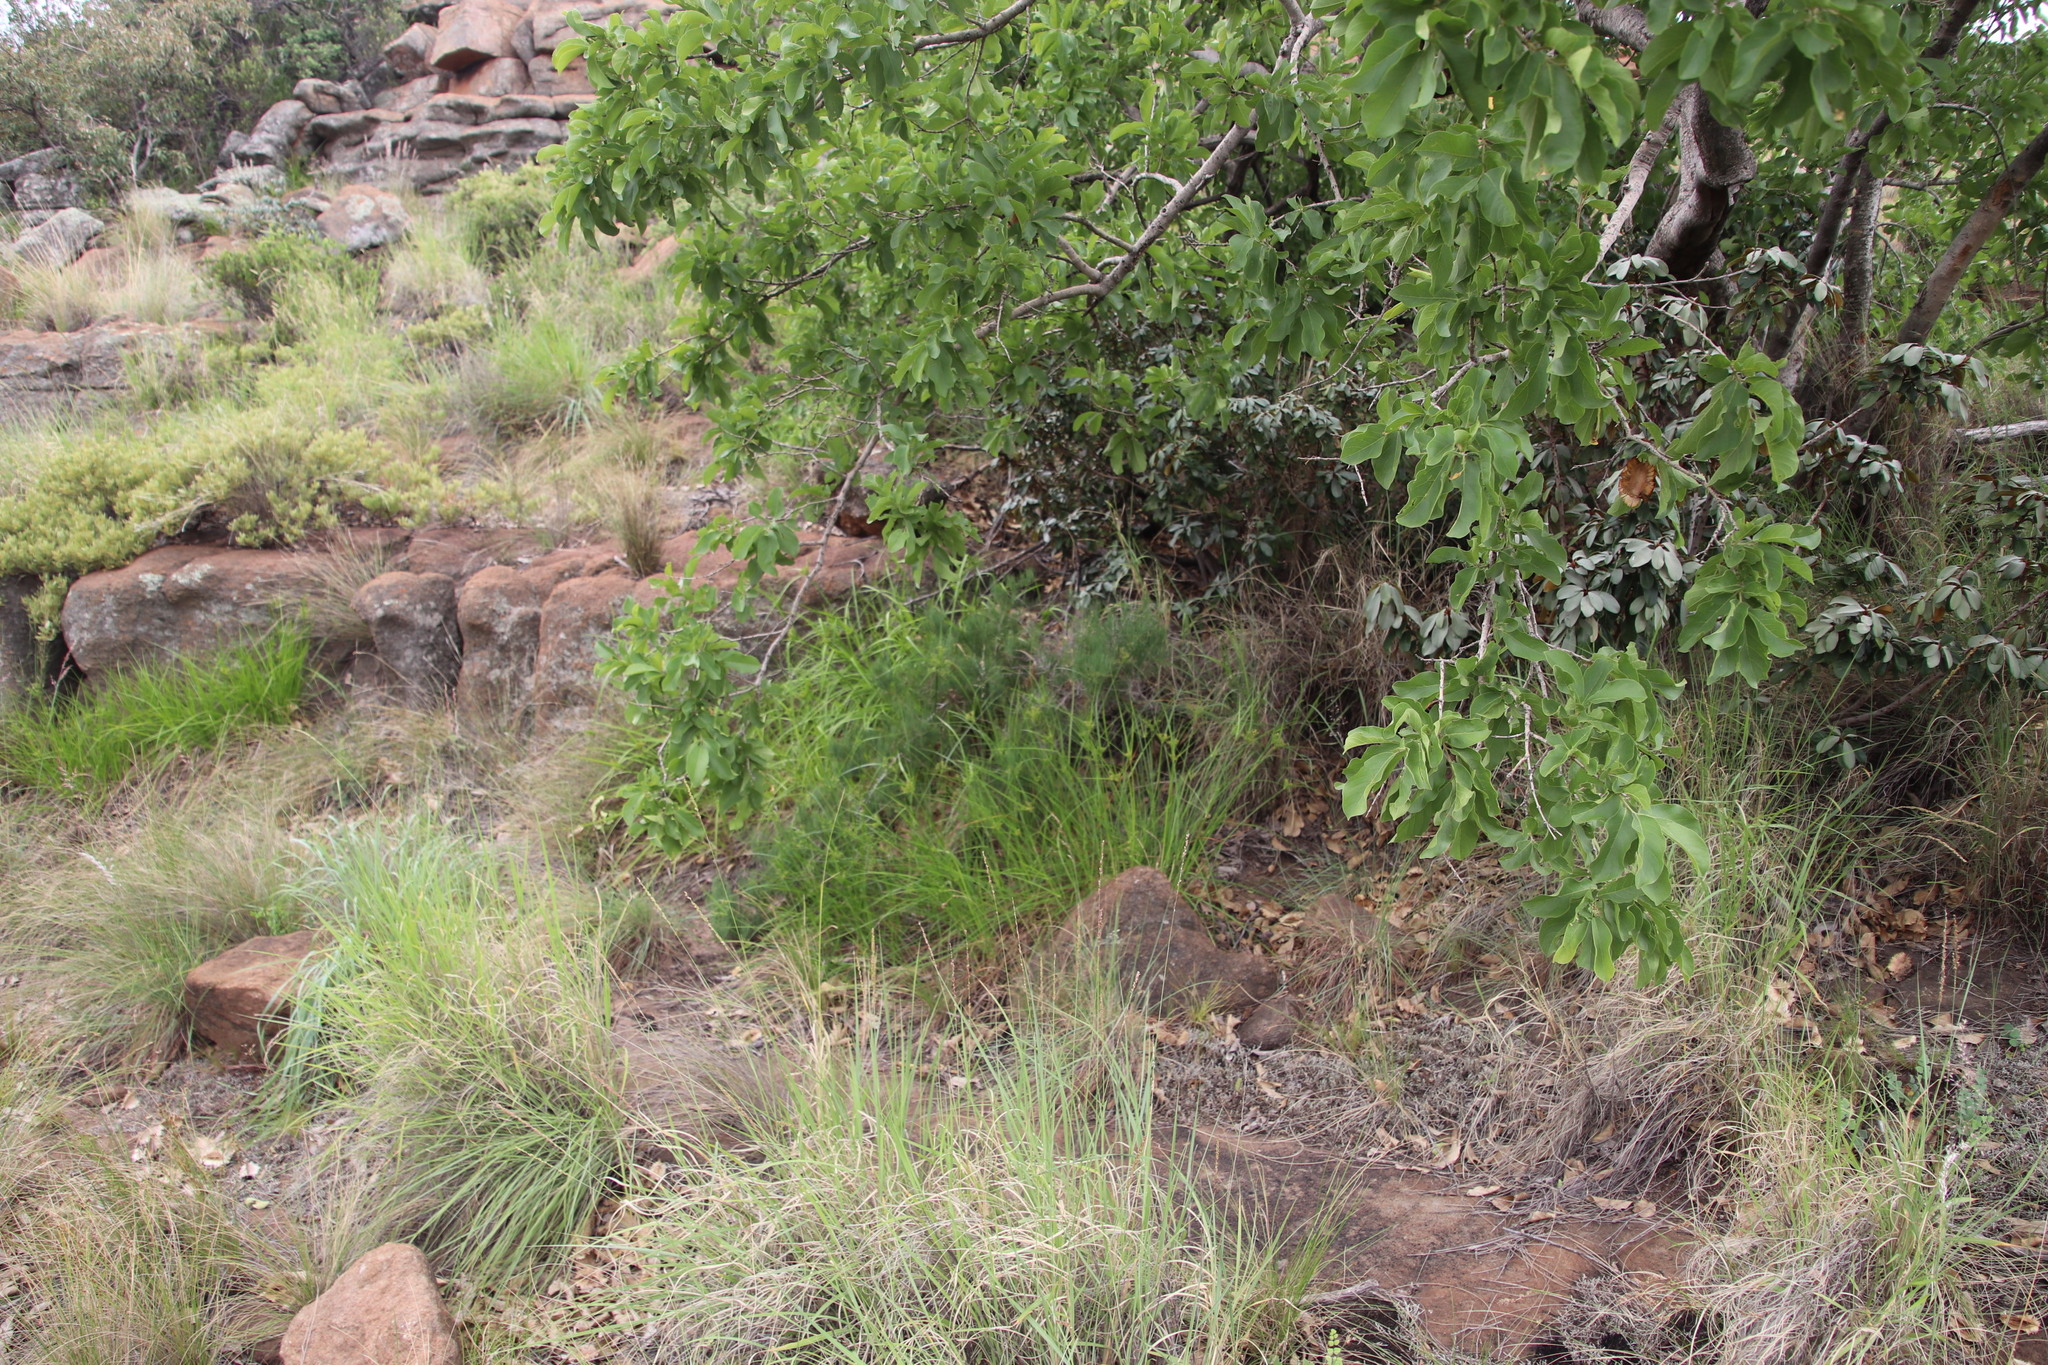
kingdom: Plantae
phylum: Tracheophyta
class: Liliopsida
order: Asparagales
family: Asparagaceae
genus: Asparagus
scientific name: Asparagus transvaalensis
